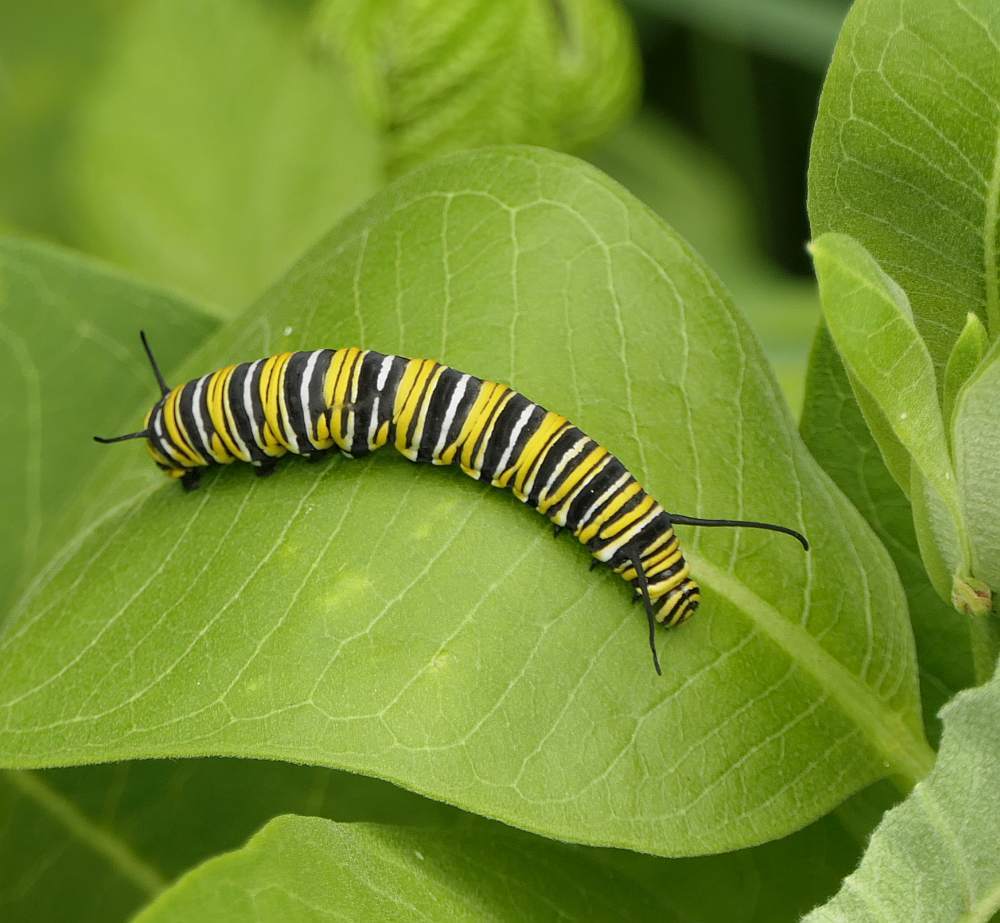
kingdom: Animalia
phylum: Arthropoda
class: Insecta
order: Lepidoptera
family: Nymphalidae
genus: Danaus
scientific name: Danaus plexippus
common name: Monarch
